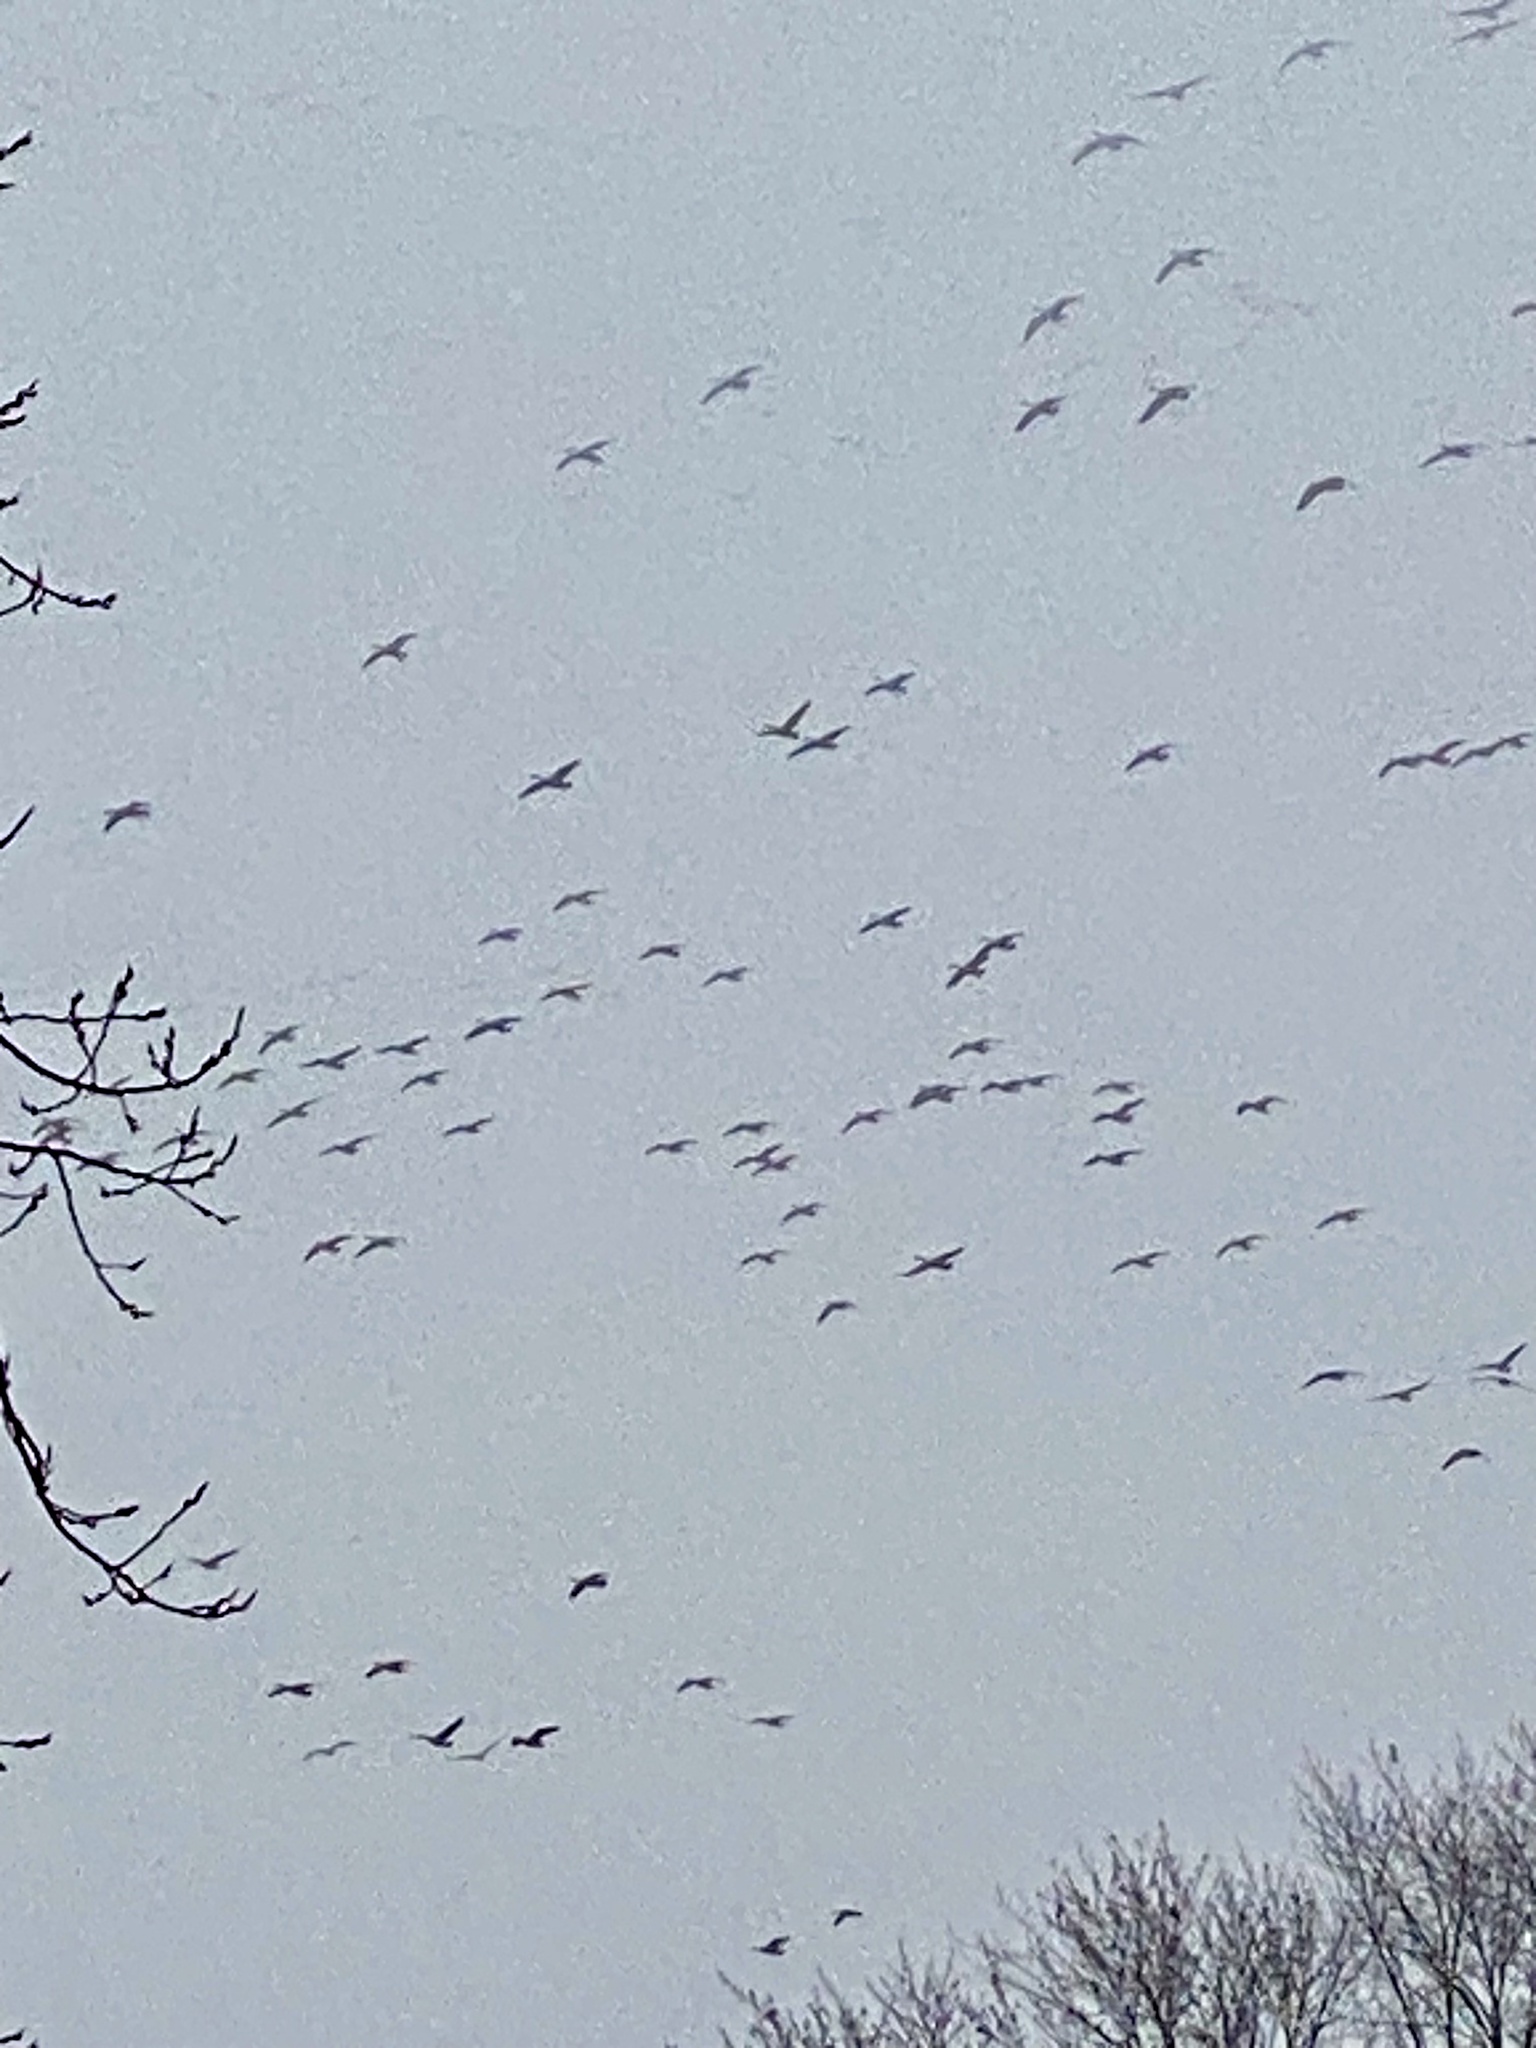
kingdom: Animalia
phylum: Chordata
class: Aves
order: Anseriformes
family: Anatidae
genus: Branta
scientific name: Branta canadensis
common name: Canada goose
